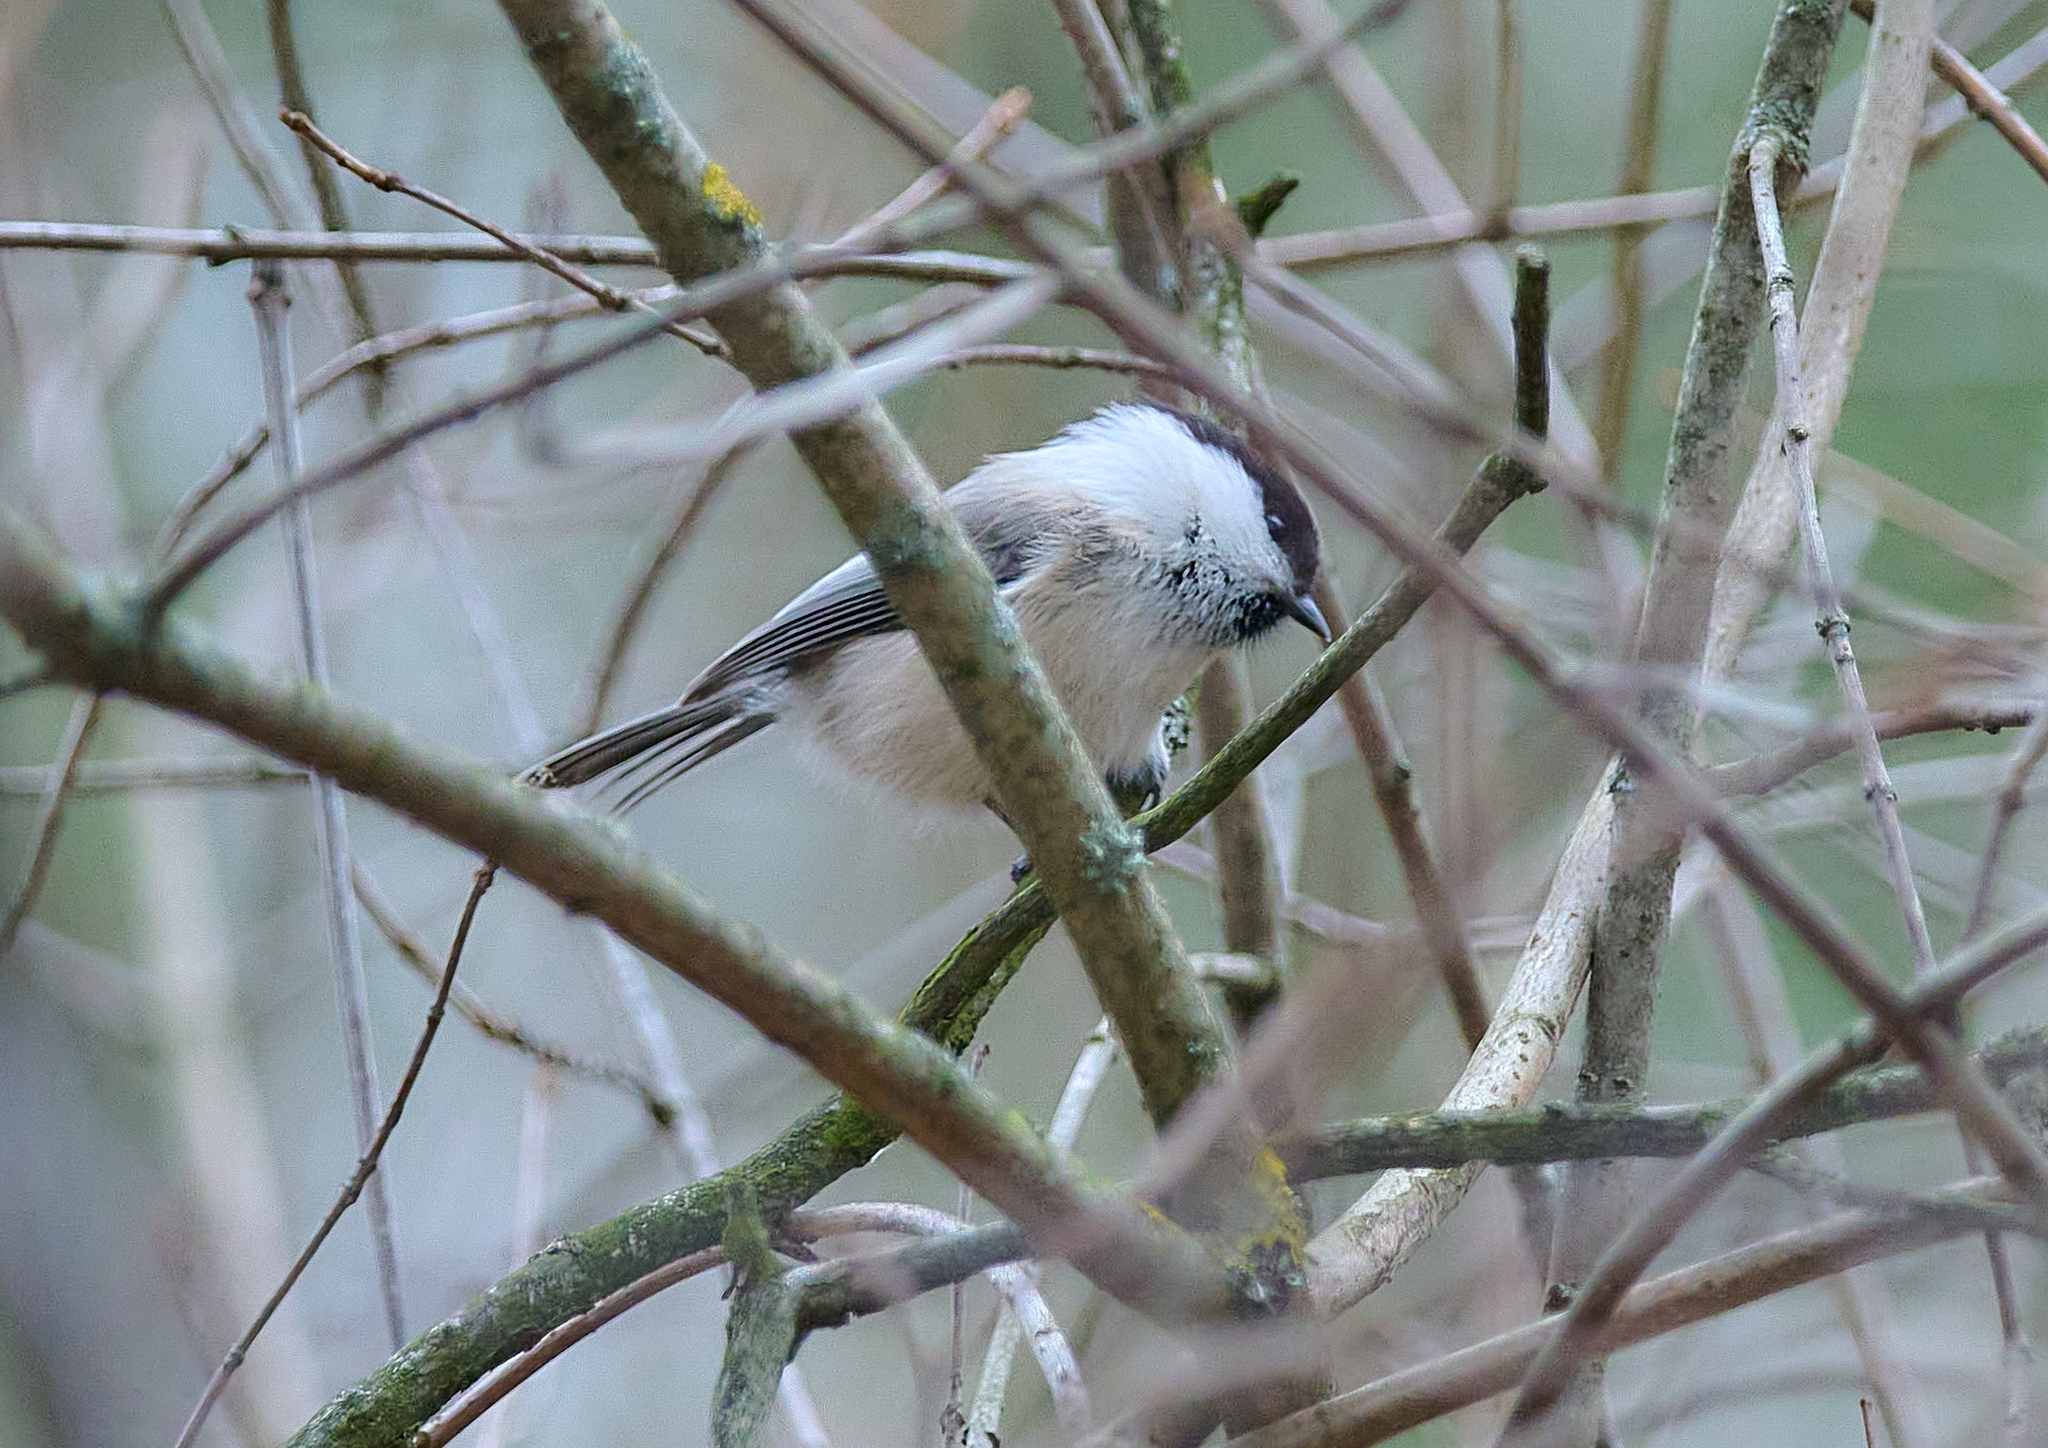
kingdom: Animalia
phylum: Chordata
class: Aves
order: Passeriformes
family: Paridae
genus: Poecile
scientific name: Poecile montanus
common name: Willow tit
